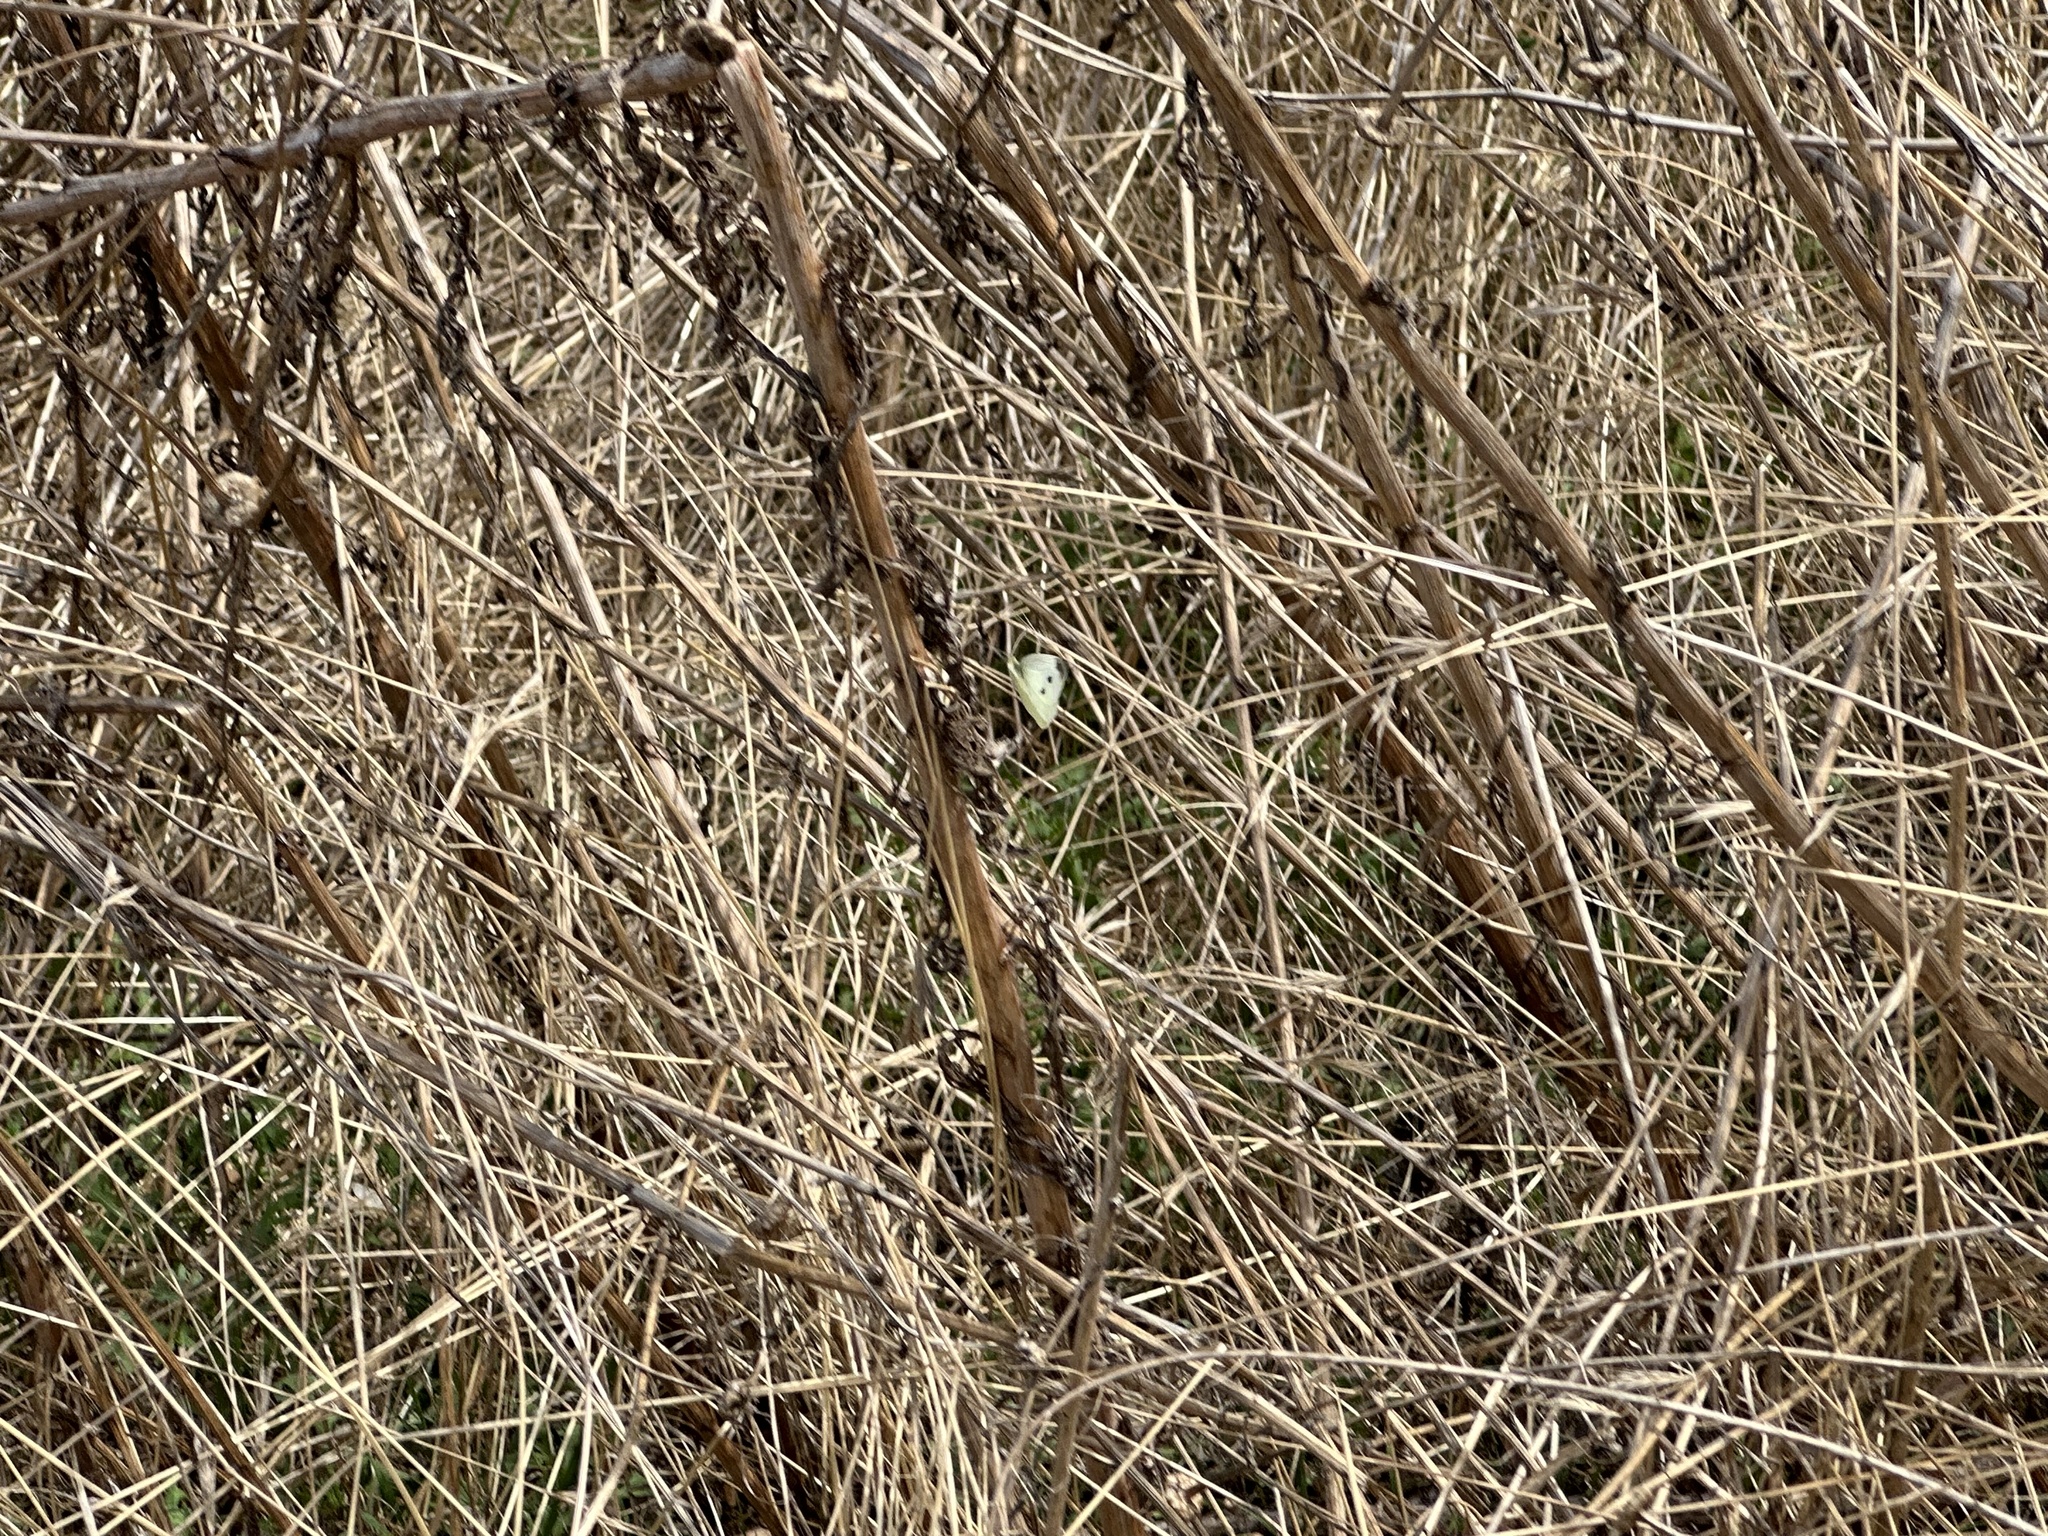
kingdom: Animalia
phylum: Arthropoda
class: Insecta
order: Lepidoptera
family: Pieridae
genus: Pieris
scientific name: Pieris rapae
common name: Small white
